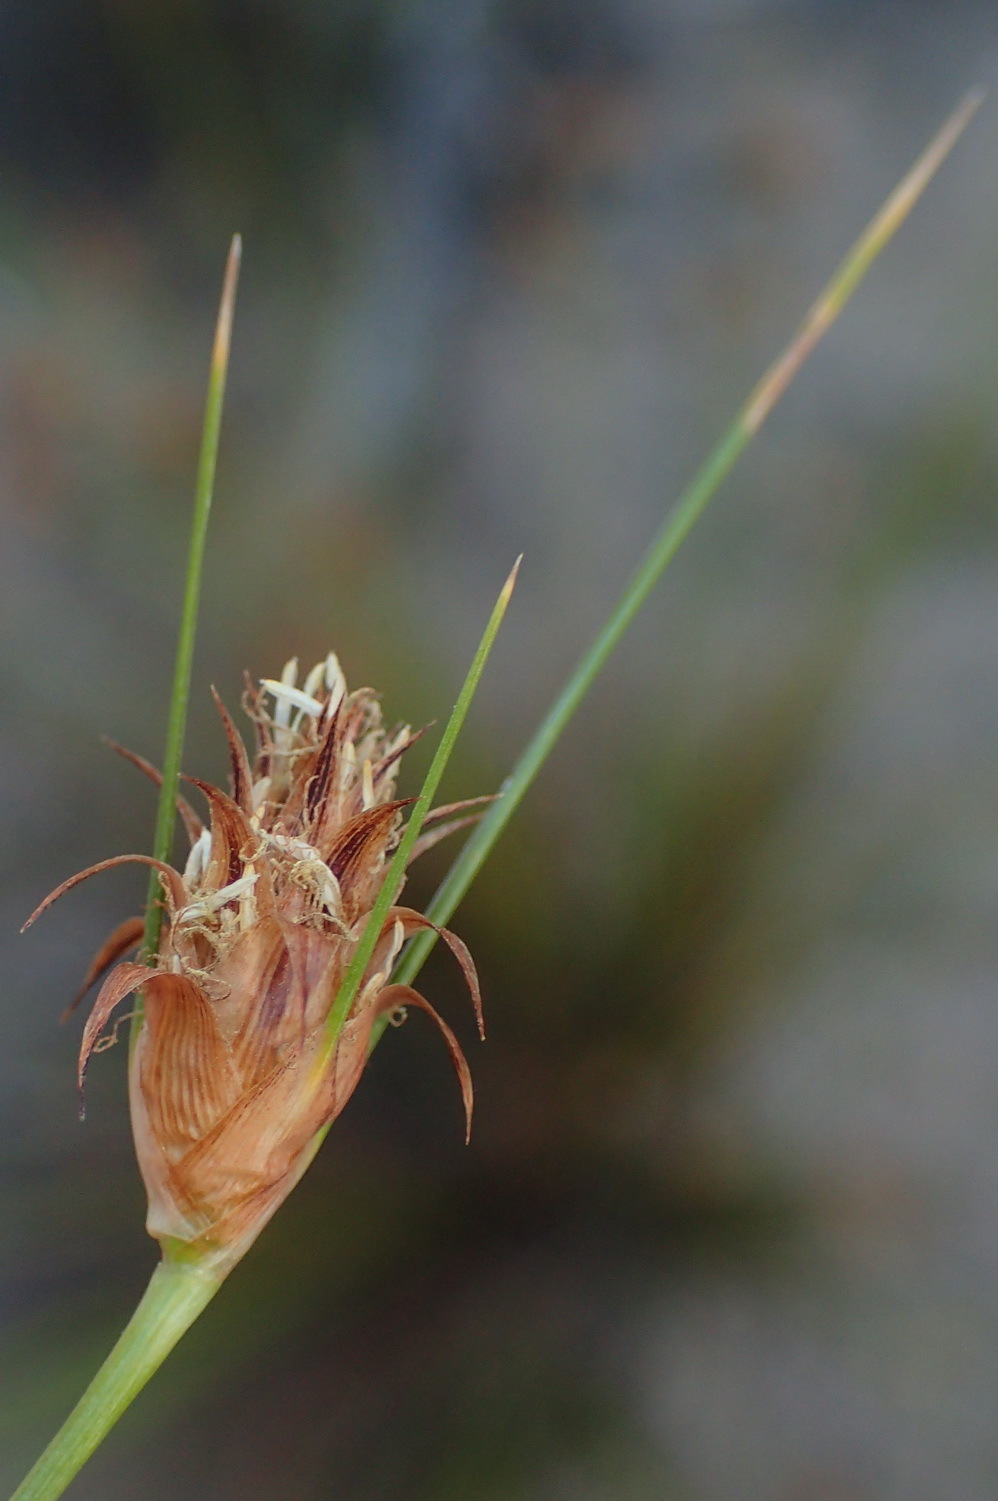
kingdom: Plantae
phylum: Tracheophyta
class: Liliopsida
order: Poales
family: Cyperaceae
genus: Ficinia
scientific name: Ficinia nigrescens
